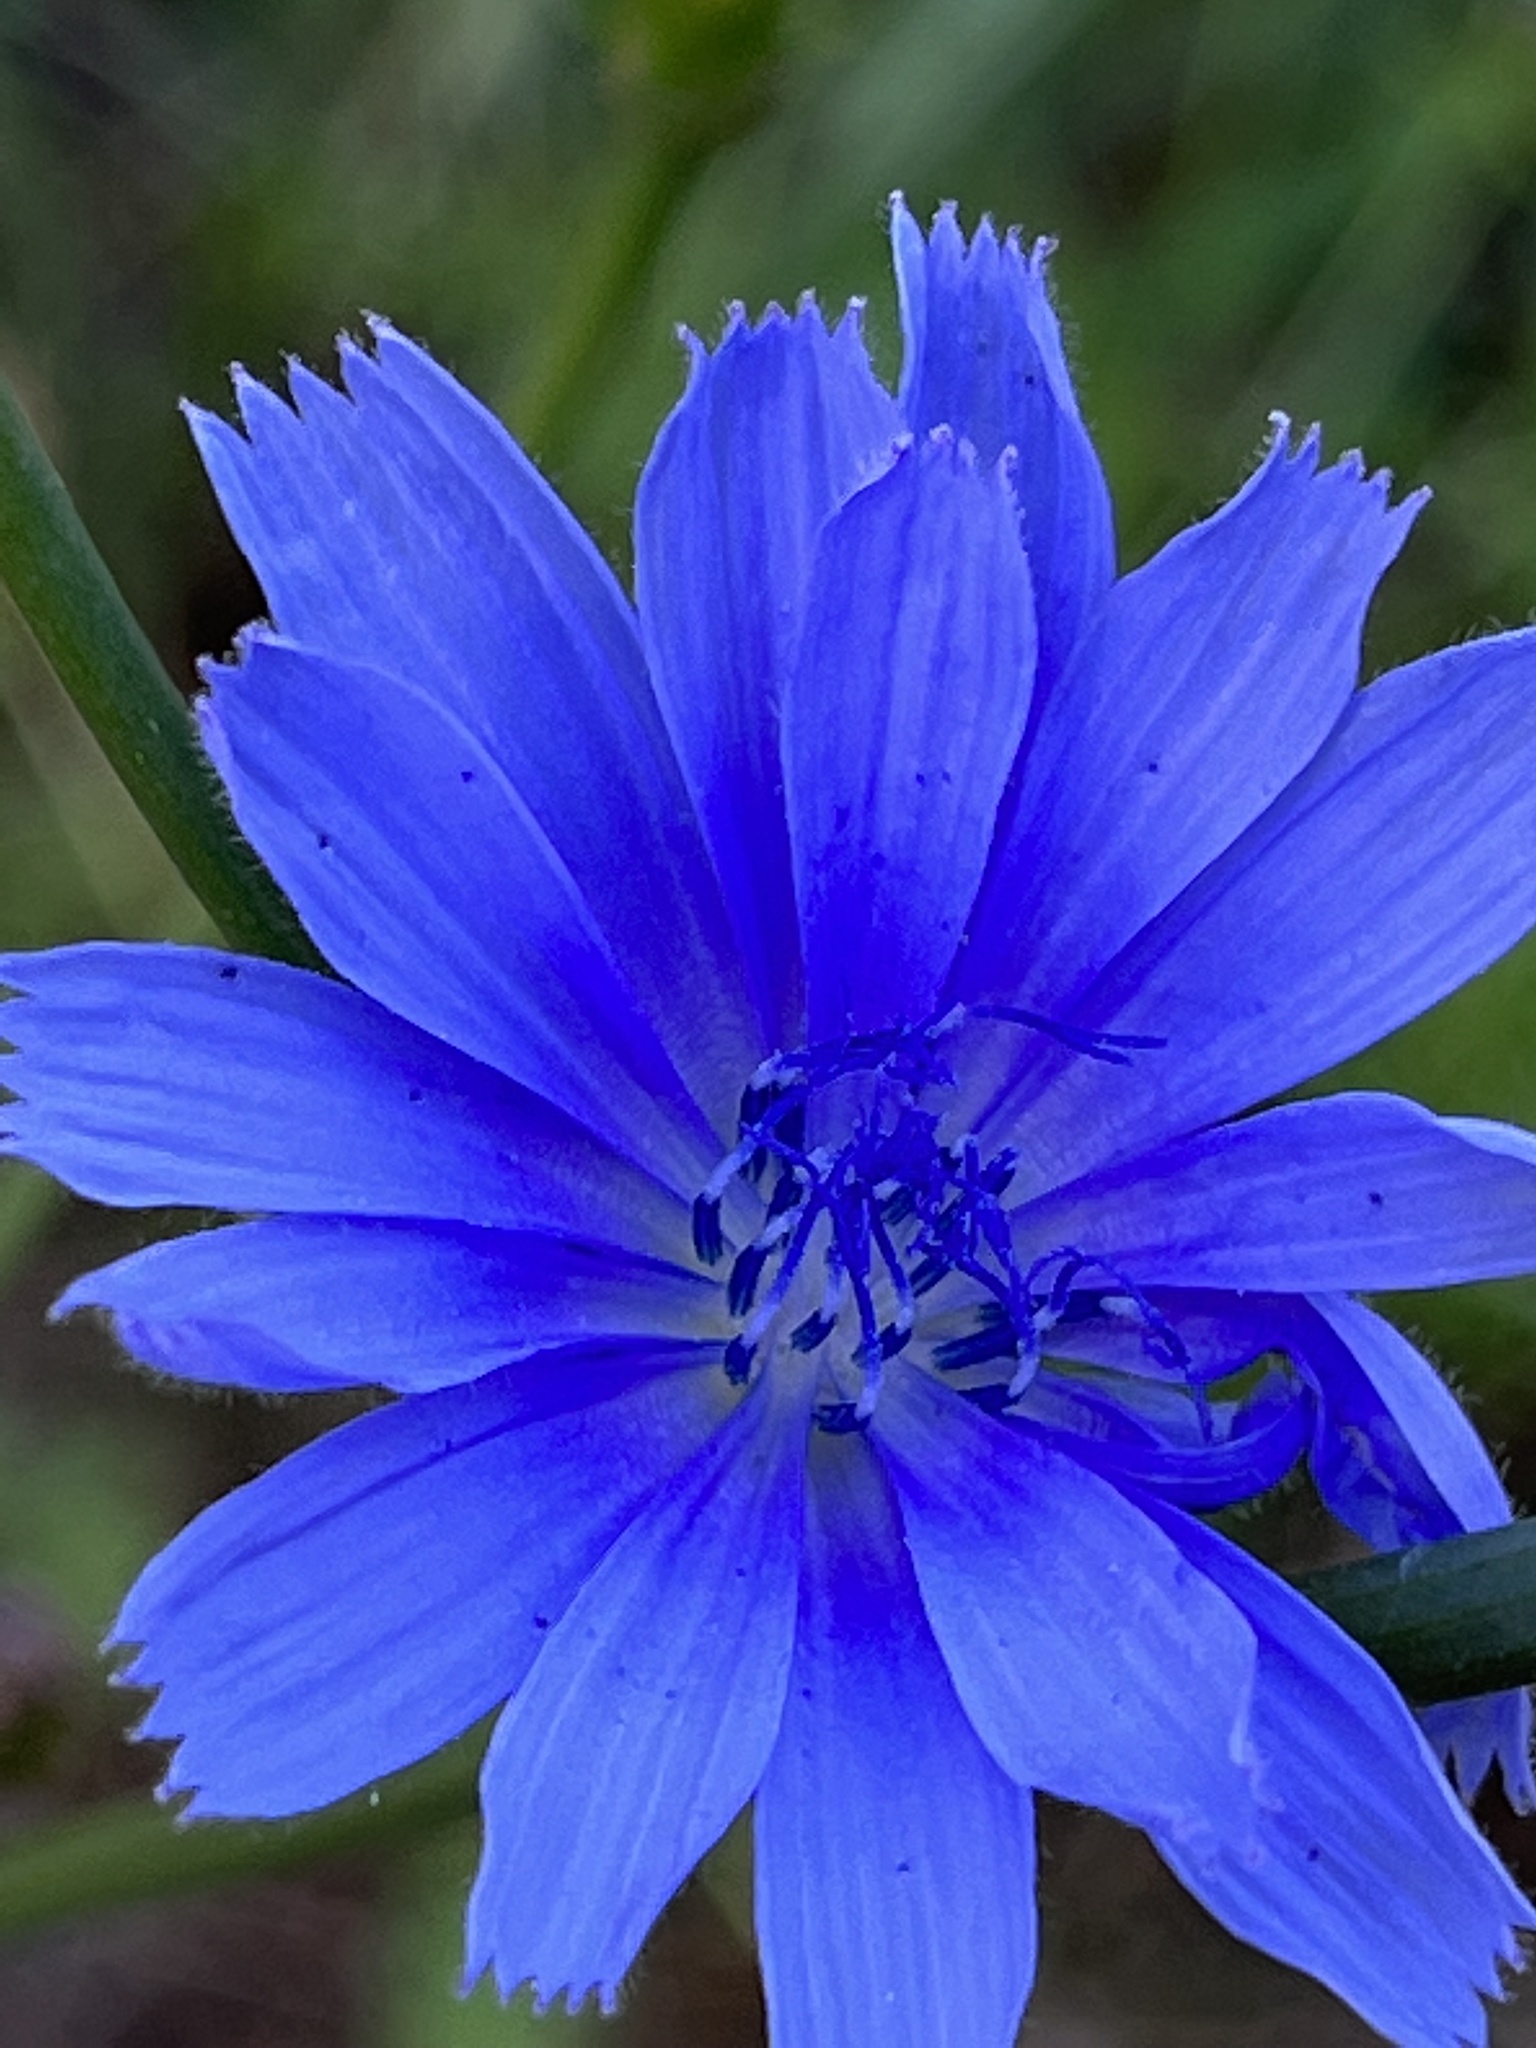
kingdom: Plantae
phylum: Tracheophyta
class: Magnoliopsida
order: Asterales
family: Asteraceae
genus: Cichorium
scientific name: Cichorium intybus
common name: Chicory
